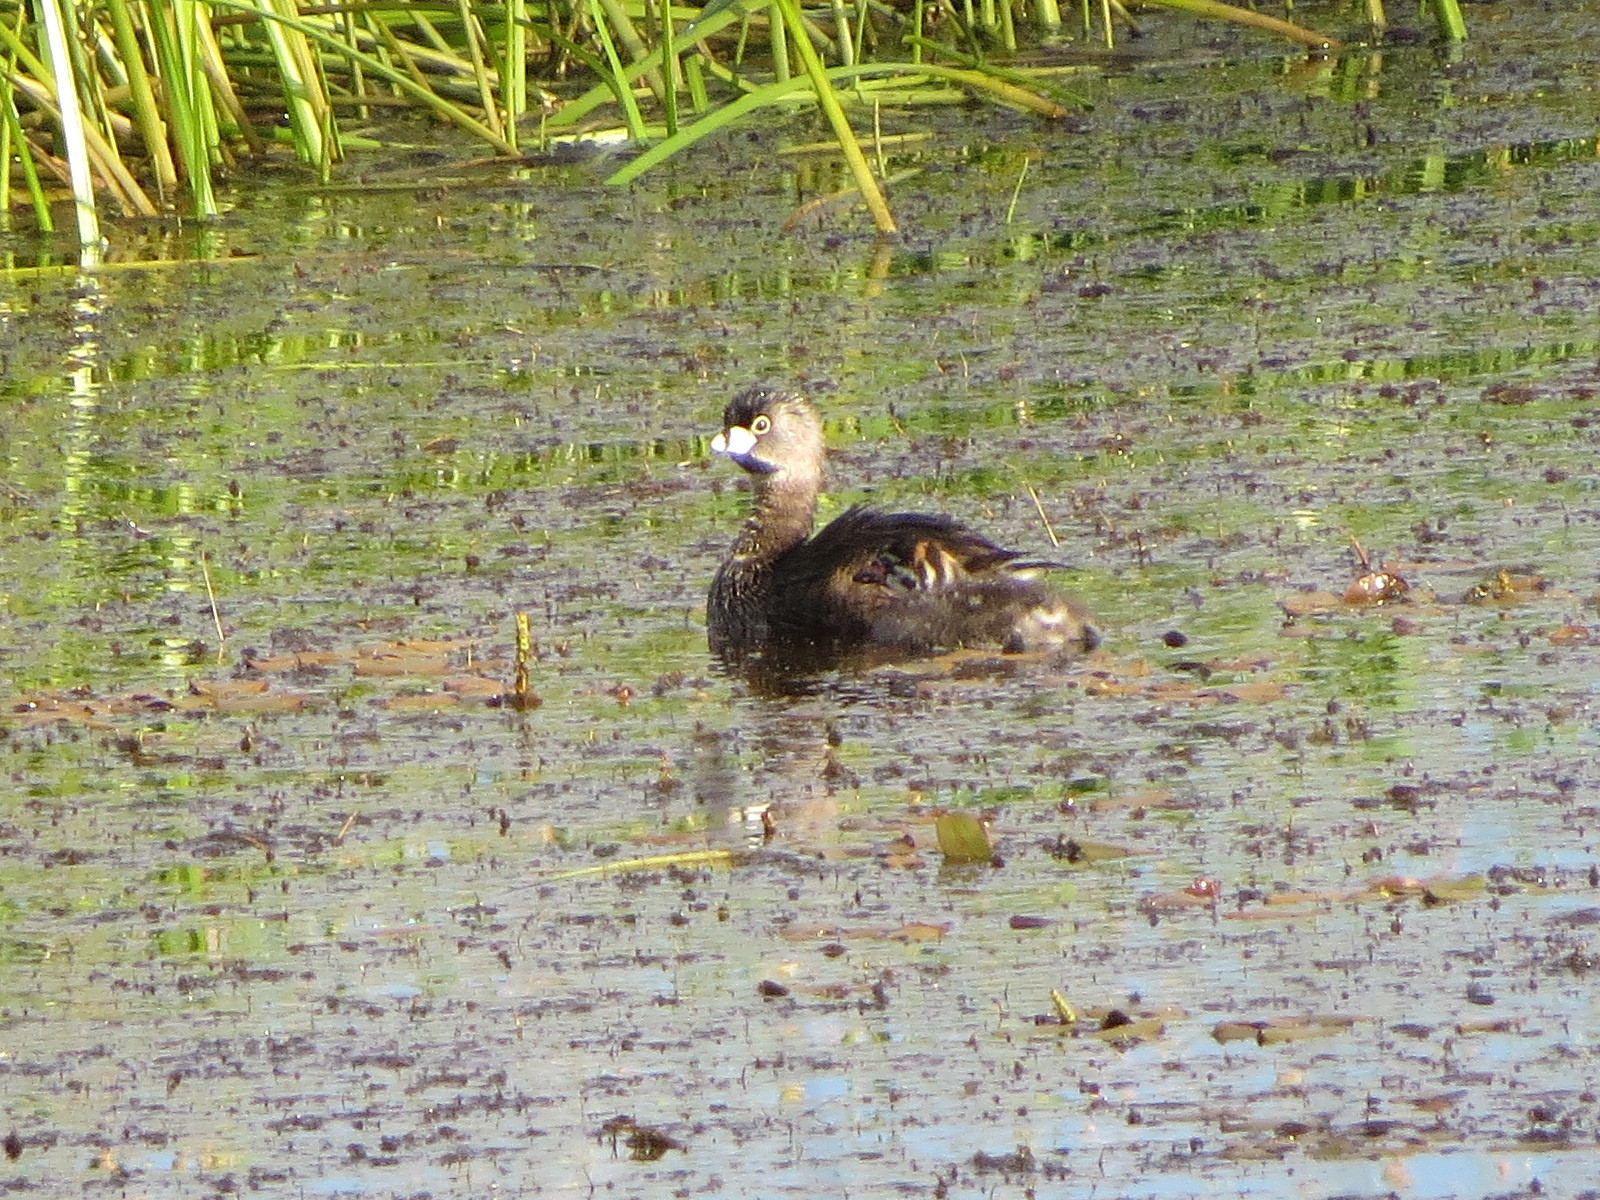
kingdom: Animalia
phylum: Chordata
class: Aves
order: Podicipediformes
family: Podicipedidae
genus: Podilymbus
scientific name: Podilymbus podiceps
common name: Pied-billed grebe
